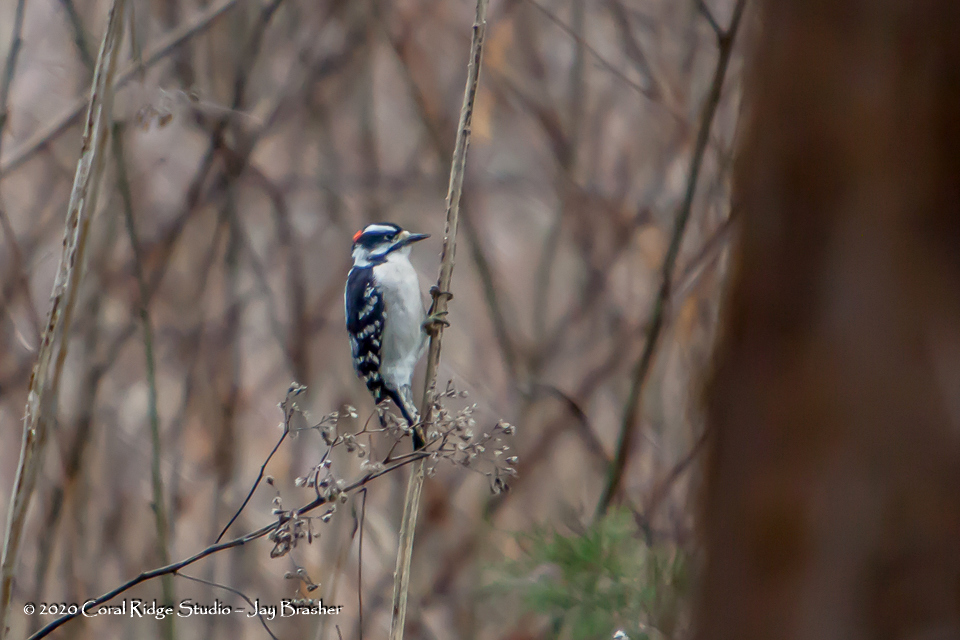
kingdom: Animalia
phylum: Chordata
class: Aves
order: Piciformes
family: Picidae
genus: Dryobates
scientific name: Dryobates pubescens
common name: Downy woodpecker
